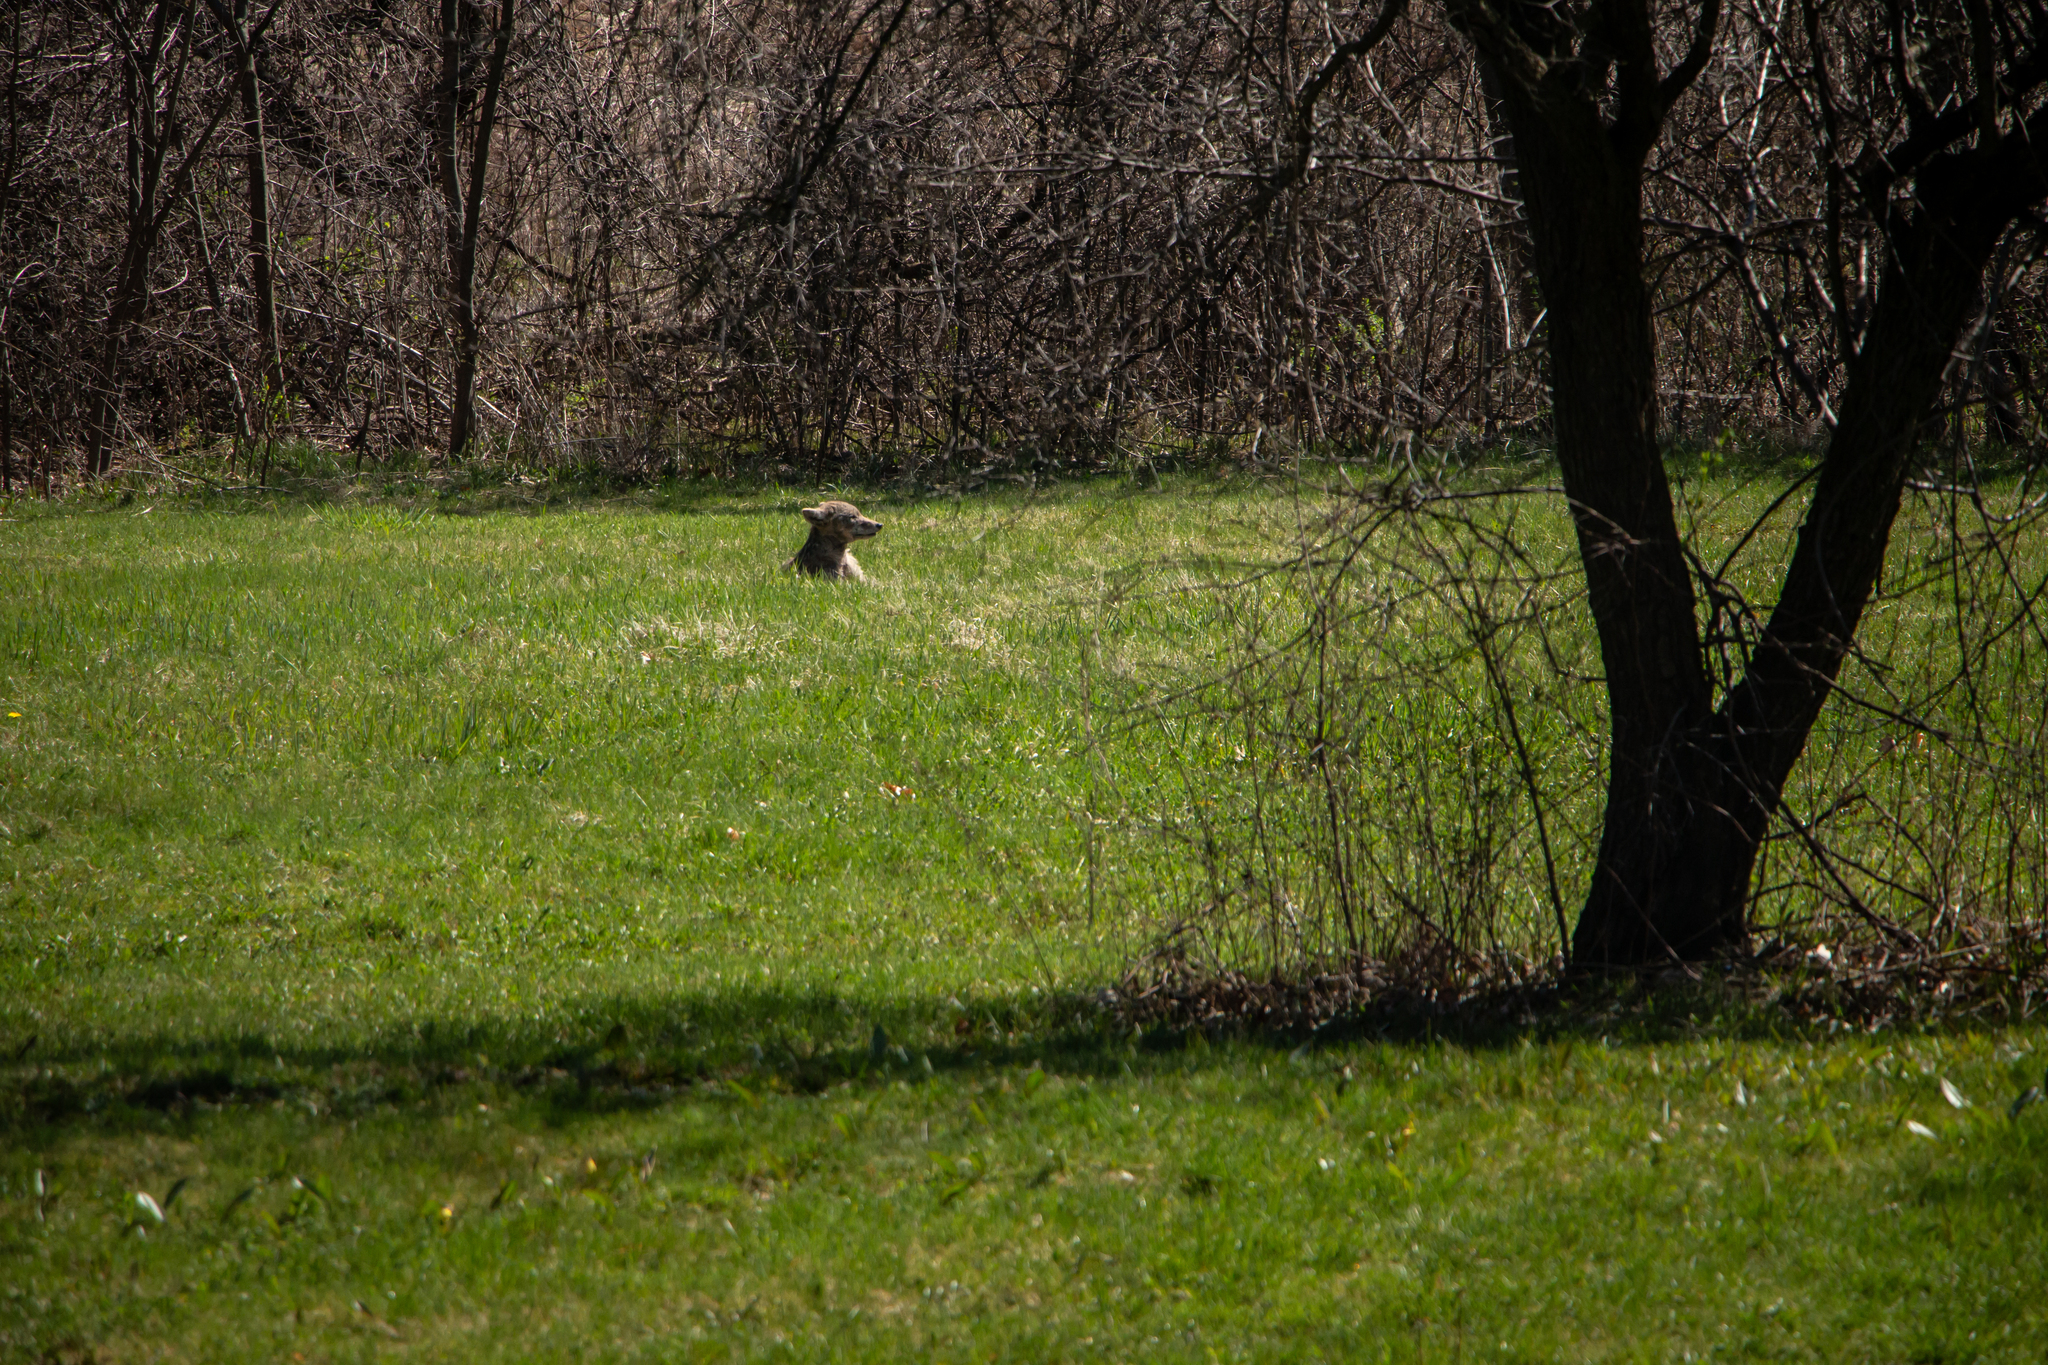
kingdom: Animalia
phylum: Chordata
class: Mammalia
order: Carnivora
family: Canidae
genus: Canis
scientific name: Canis latrans
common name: Coyote
